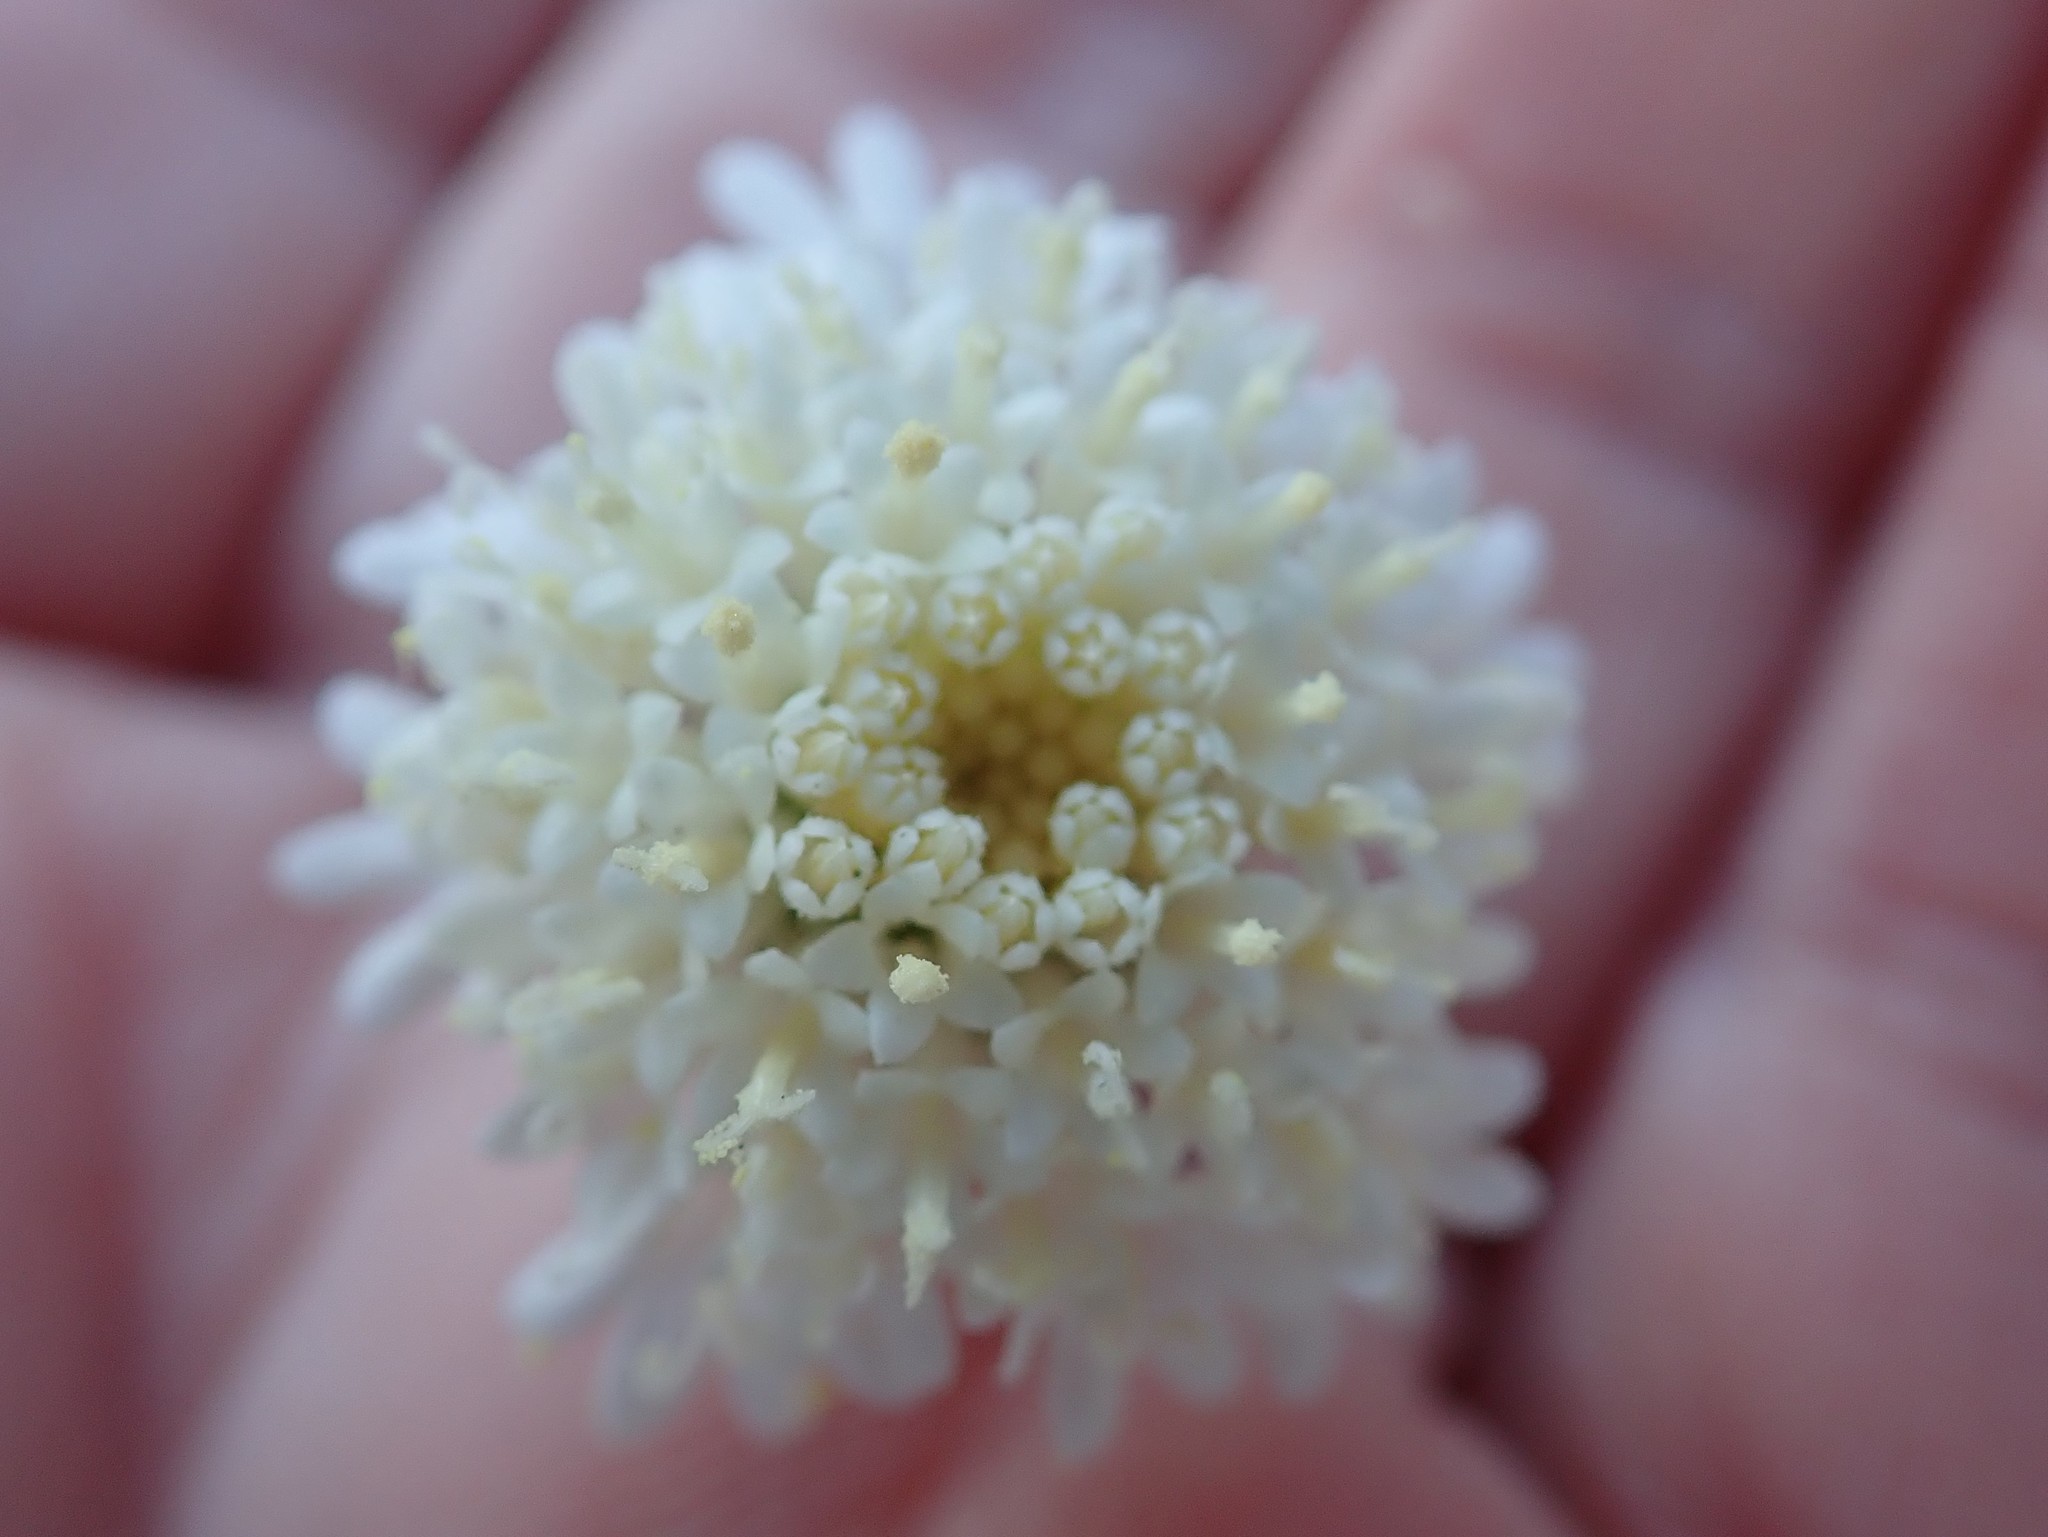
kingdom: Plantae
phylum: Tracheophyta
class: Magnoliopsida
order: Asterales
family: Asteraceae
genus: Chaenactis
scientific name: Chaenactis fremontii
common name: Fremont pincushion
